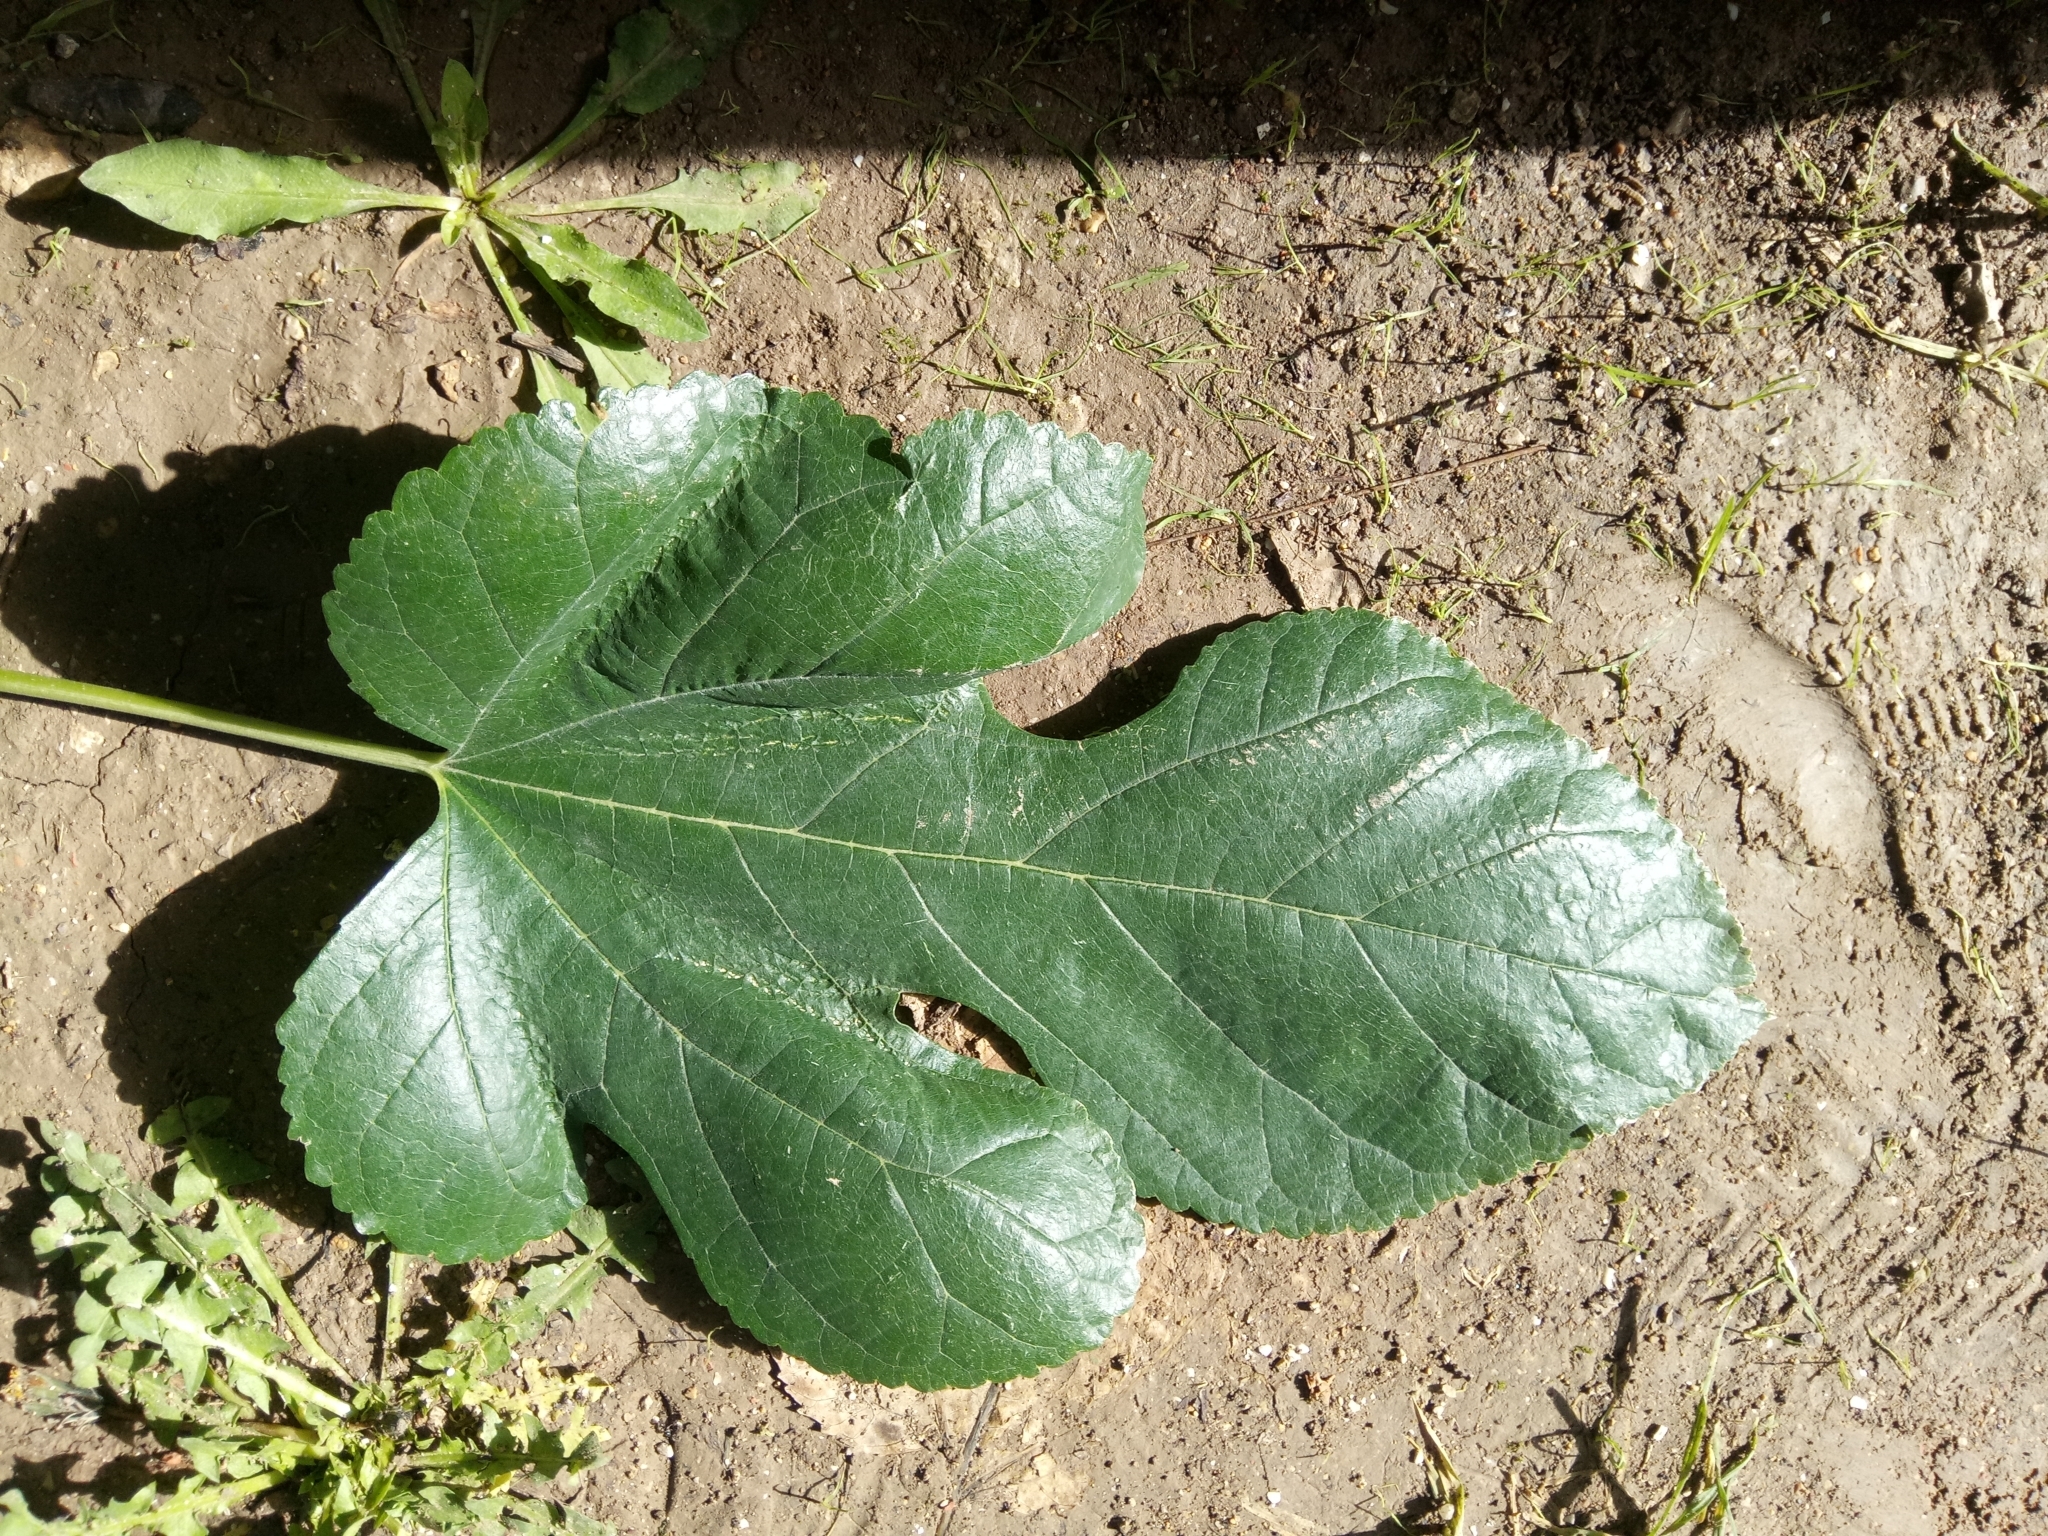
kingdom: Plantae
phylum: Tracheophyta
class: Magnoliopsida
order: Rosales
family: Moraceae
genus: Morus
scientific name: Morus alba
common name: White mulberry
